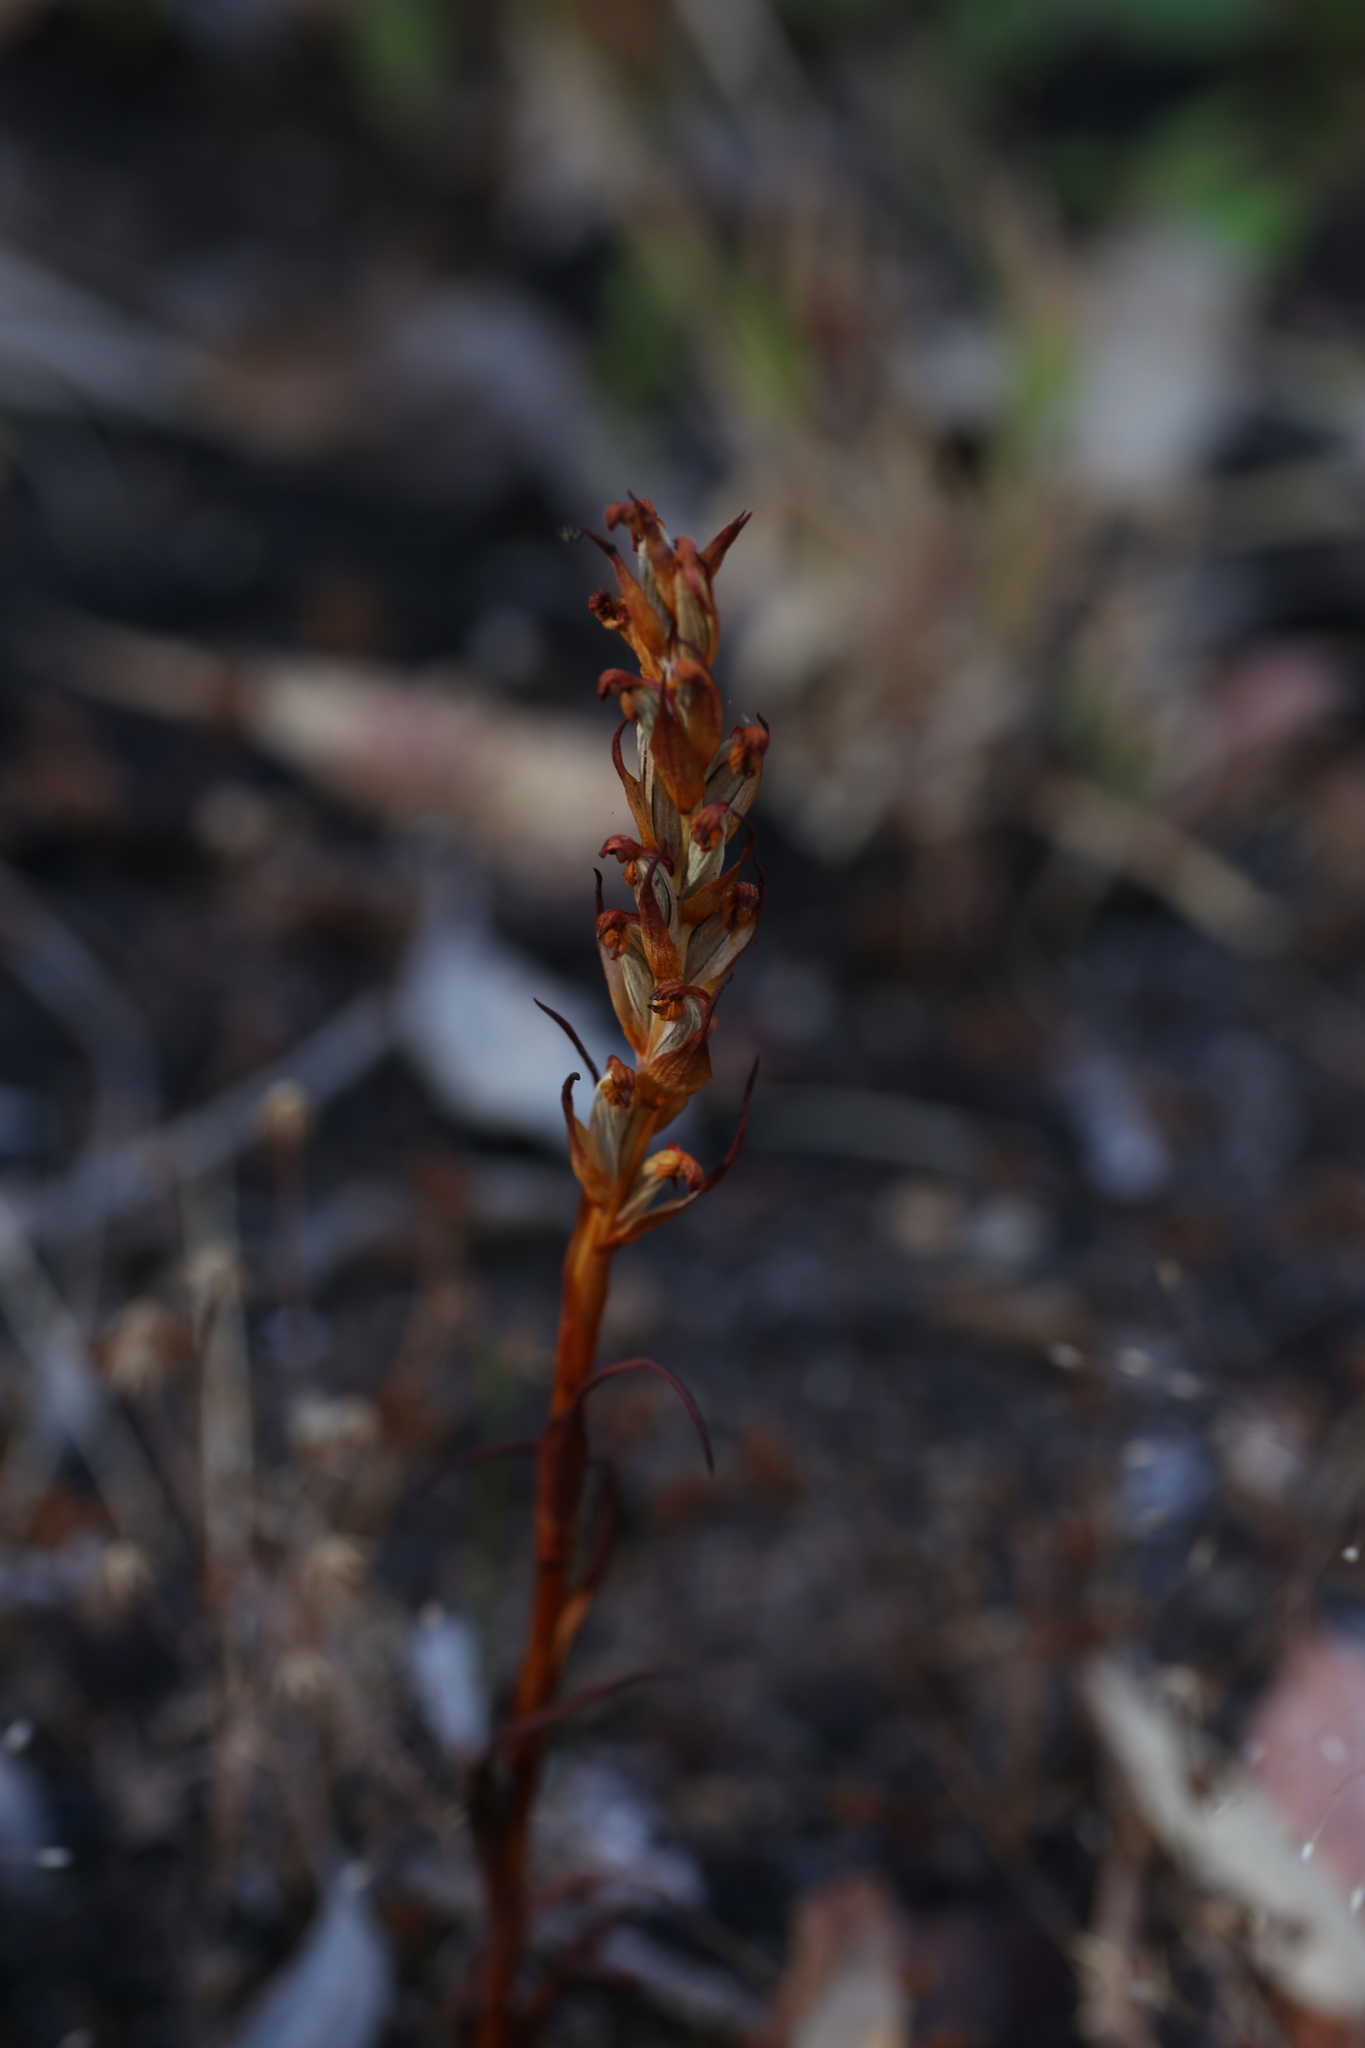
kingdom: Plantae
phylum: Tracheophyta
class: Liliopsida
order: Asparagales
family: Orchidaceae
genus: Disa
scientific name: Disa bracteata
